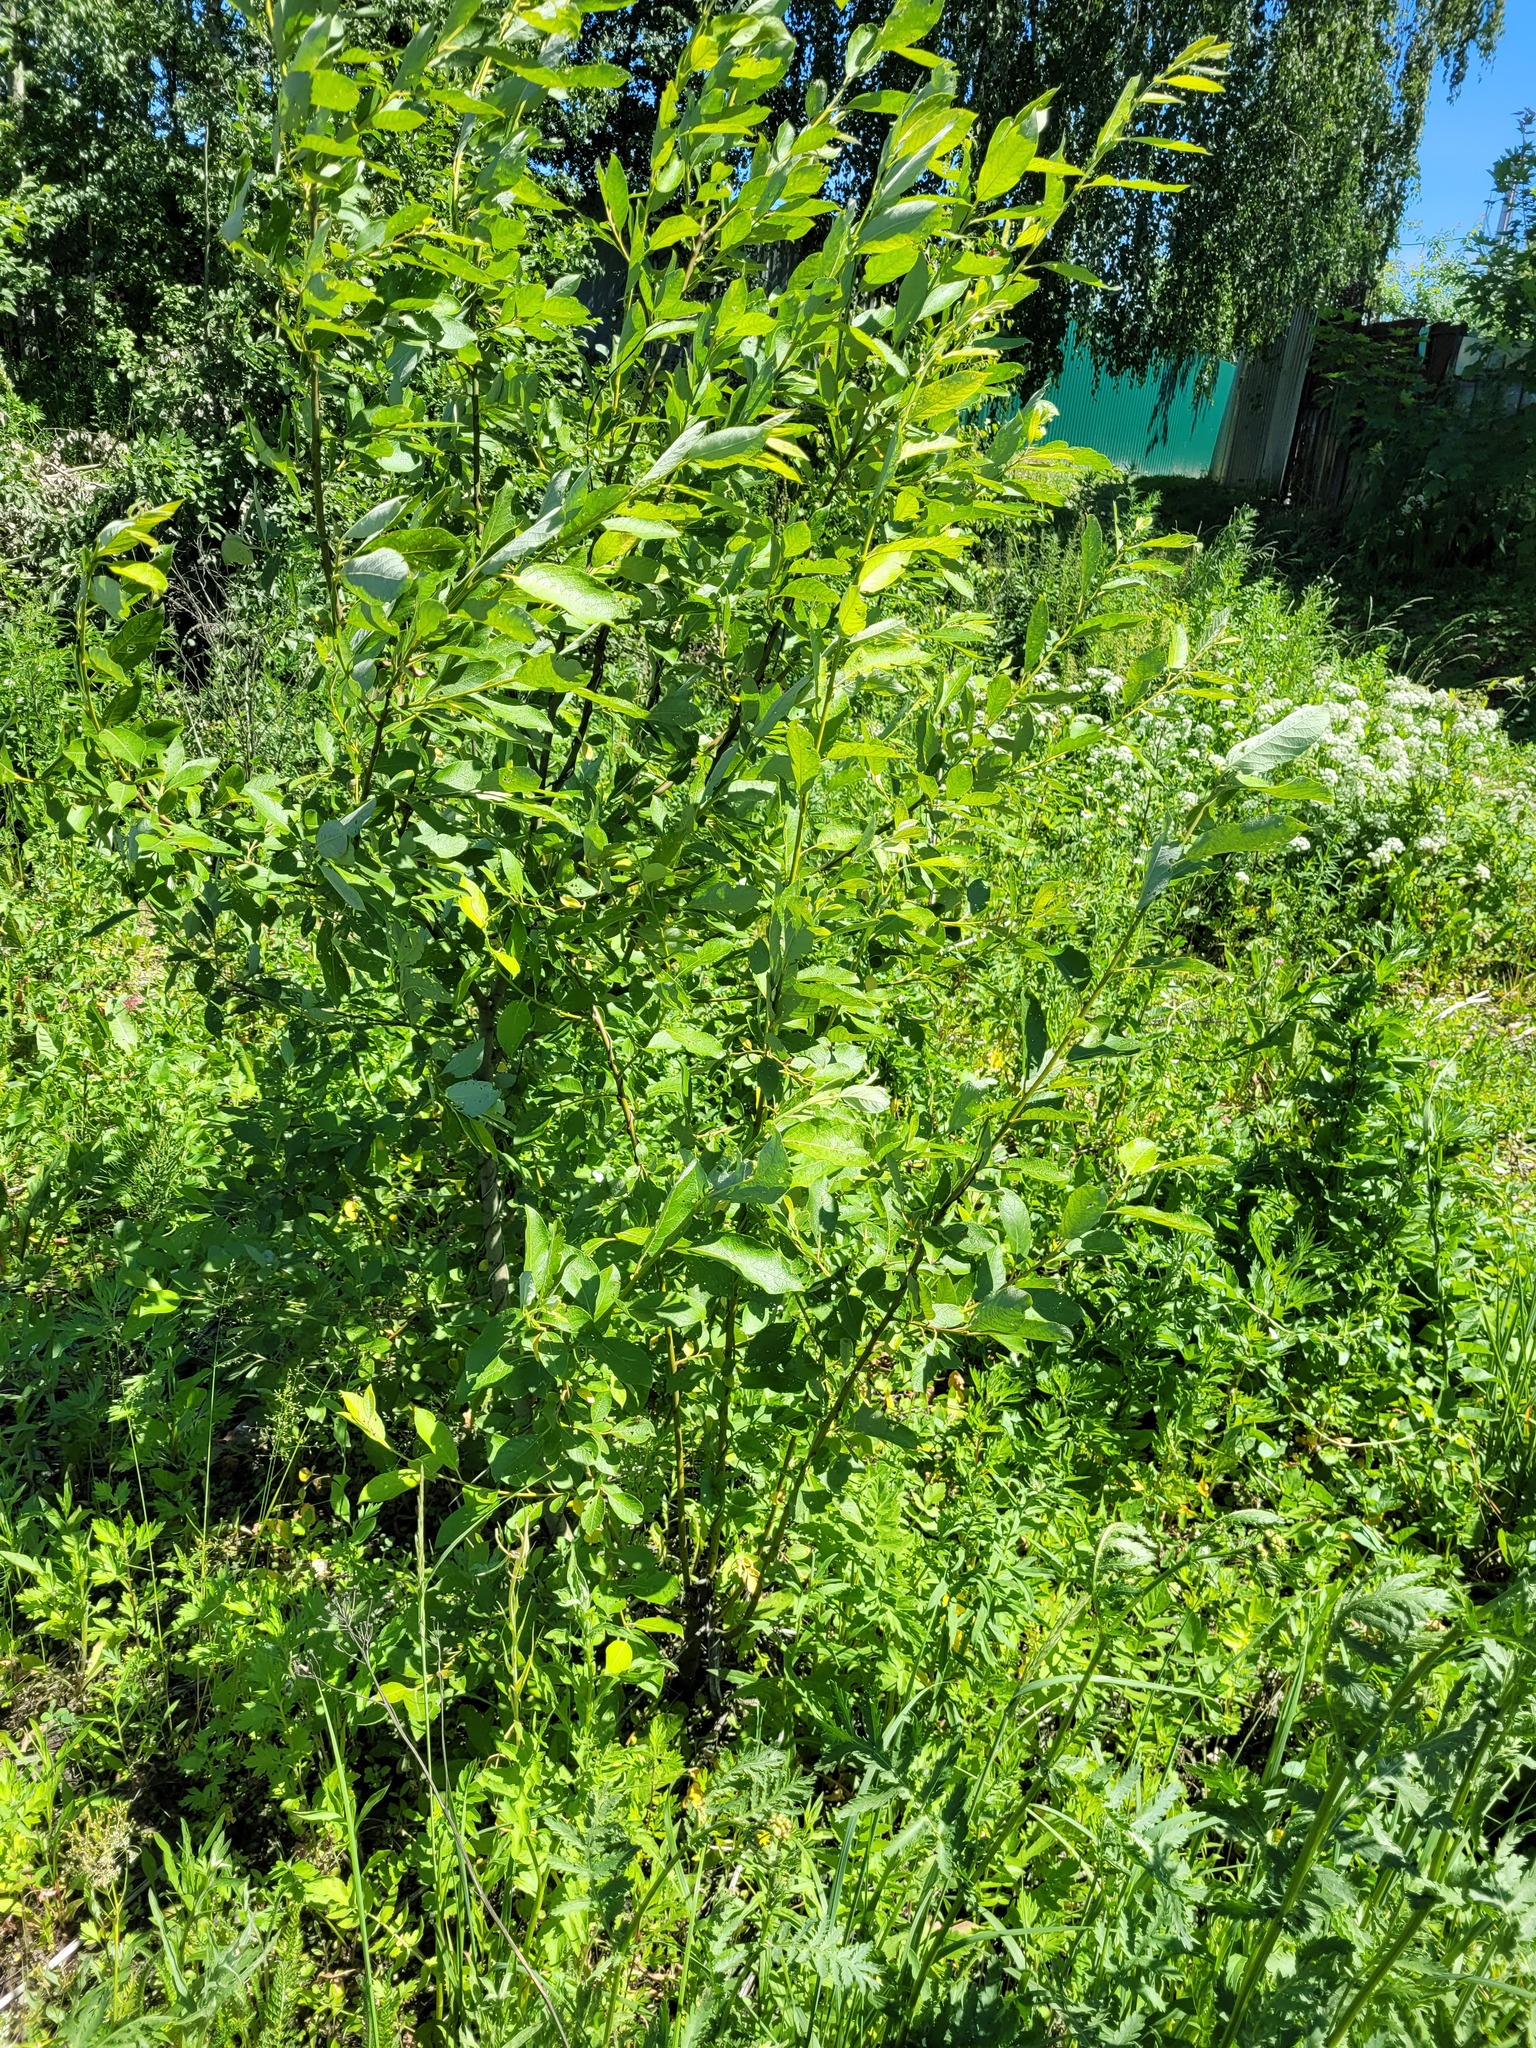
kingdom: Plantae
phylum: Tracheophyta
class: Magnoliopsida
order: Malpighiales
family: Salicaceae
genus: Salix
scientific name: Salix caprea
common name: Goat willow
